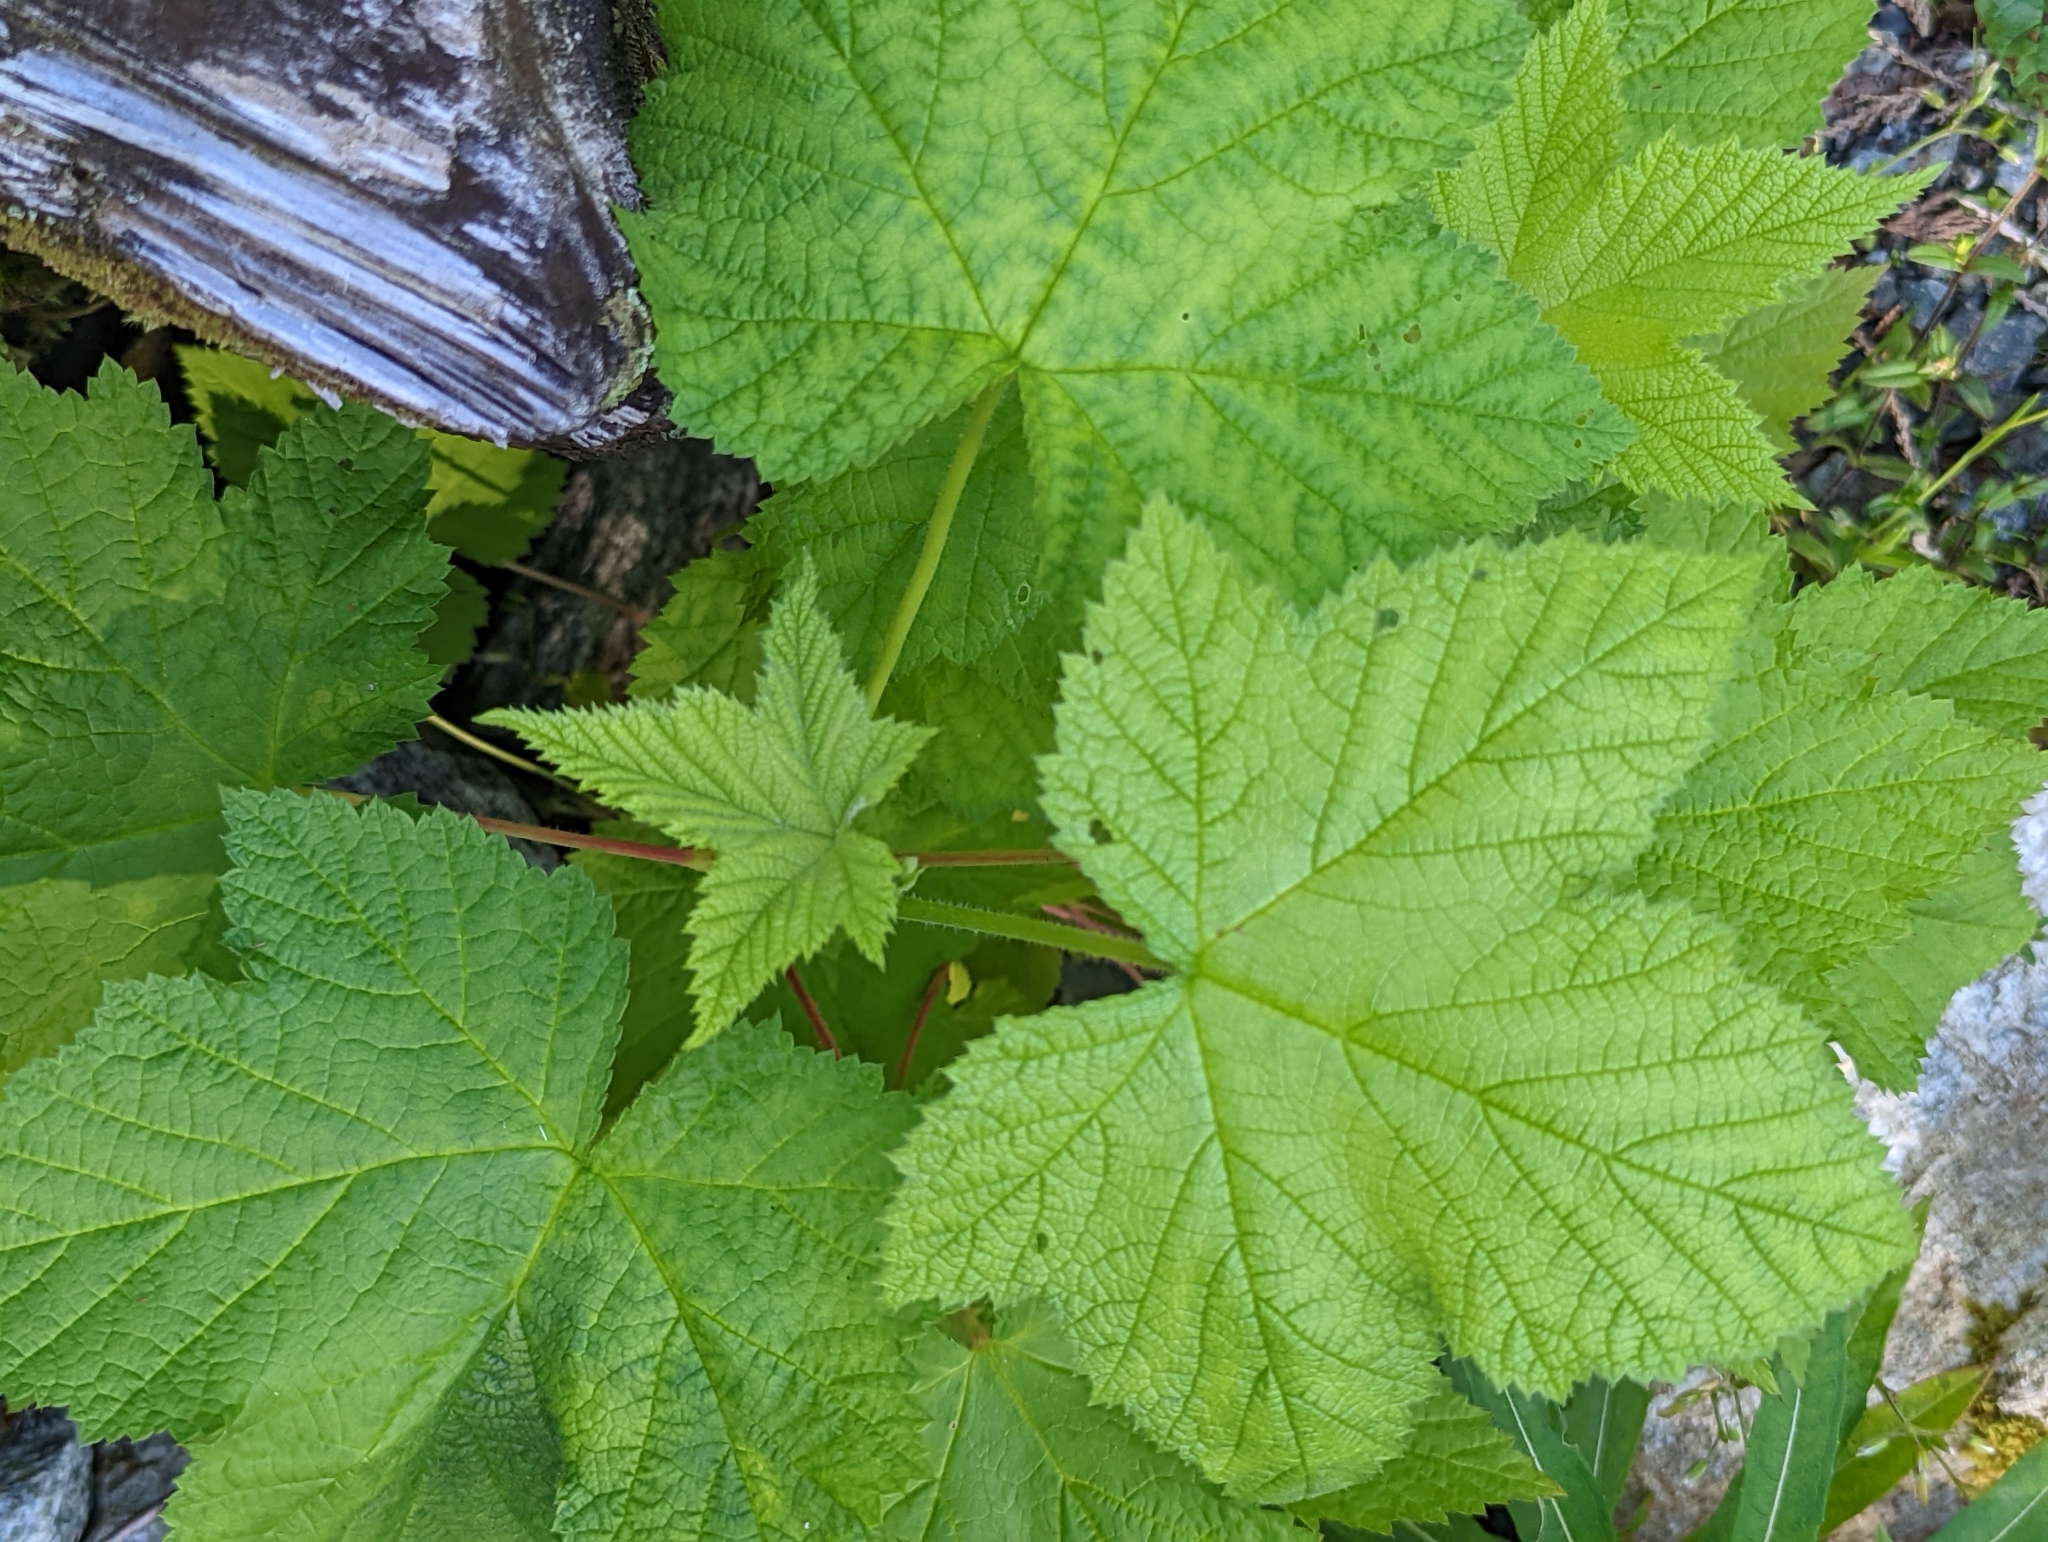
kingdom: Plantae
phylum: Tracheophyta
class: Magnoliopsida
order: Rosales
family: Rosaceae
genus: Rubus
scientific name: Rubus parviflorus
